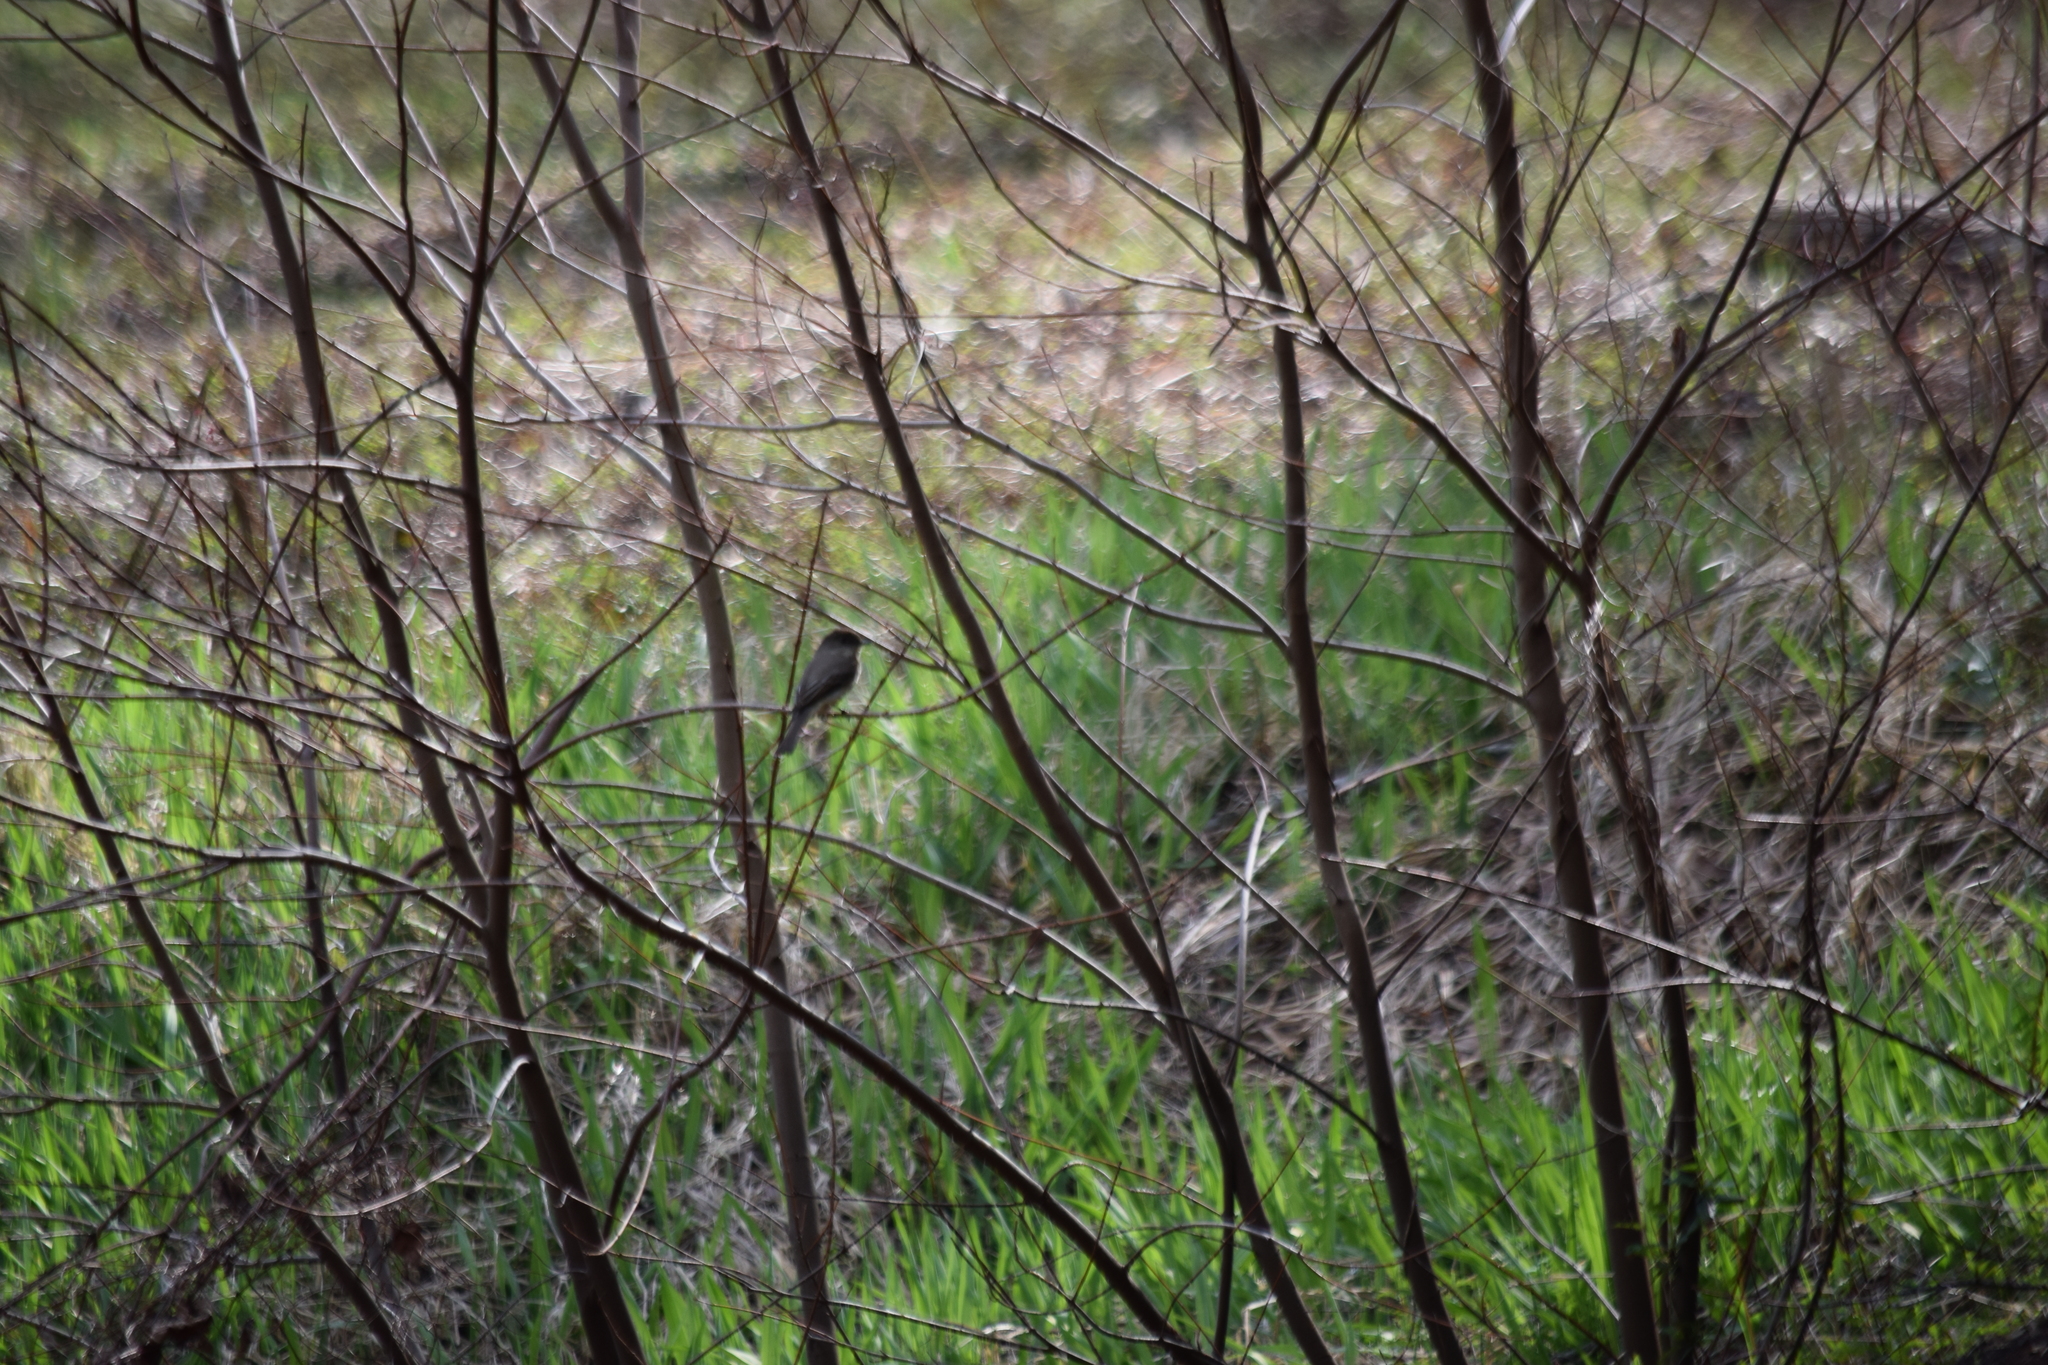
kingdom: Animalia
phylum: Chordata
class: Aves
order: Passeriformes
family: Tyrannidae
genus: Sayornis
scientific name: Sayornis phoebe
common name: Eastern phoebe
